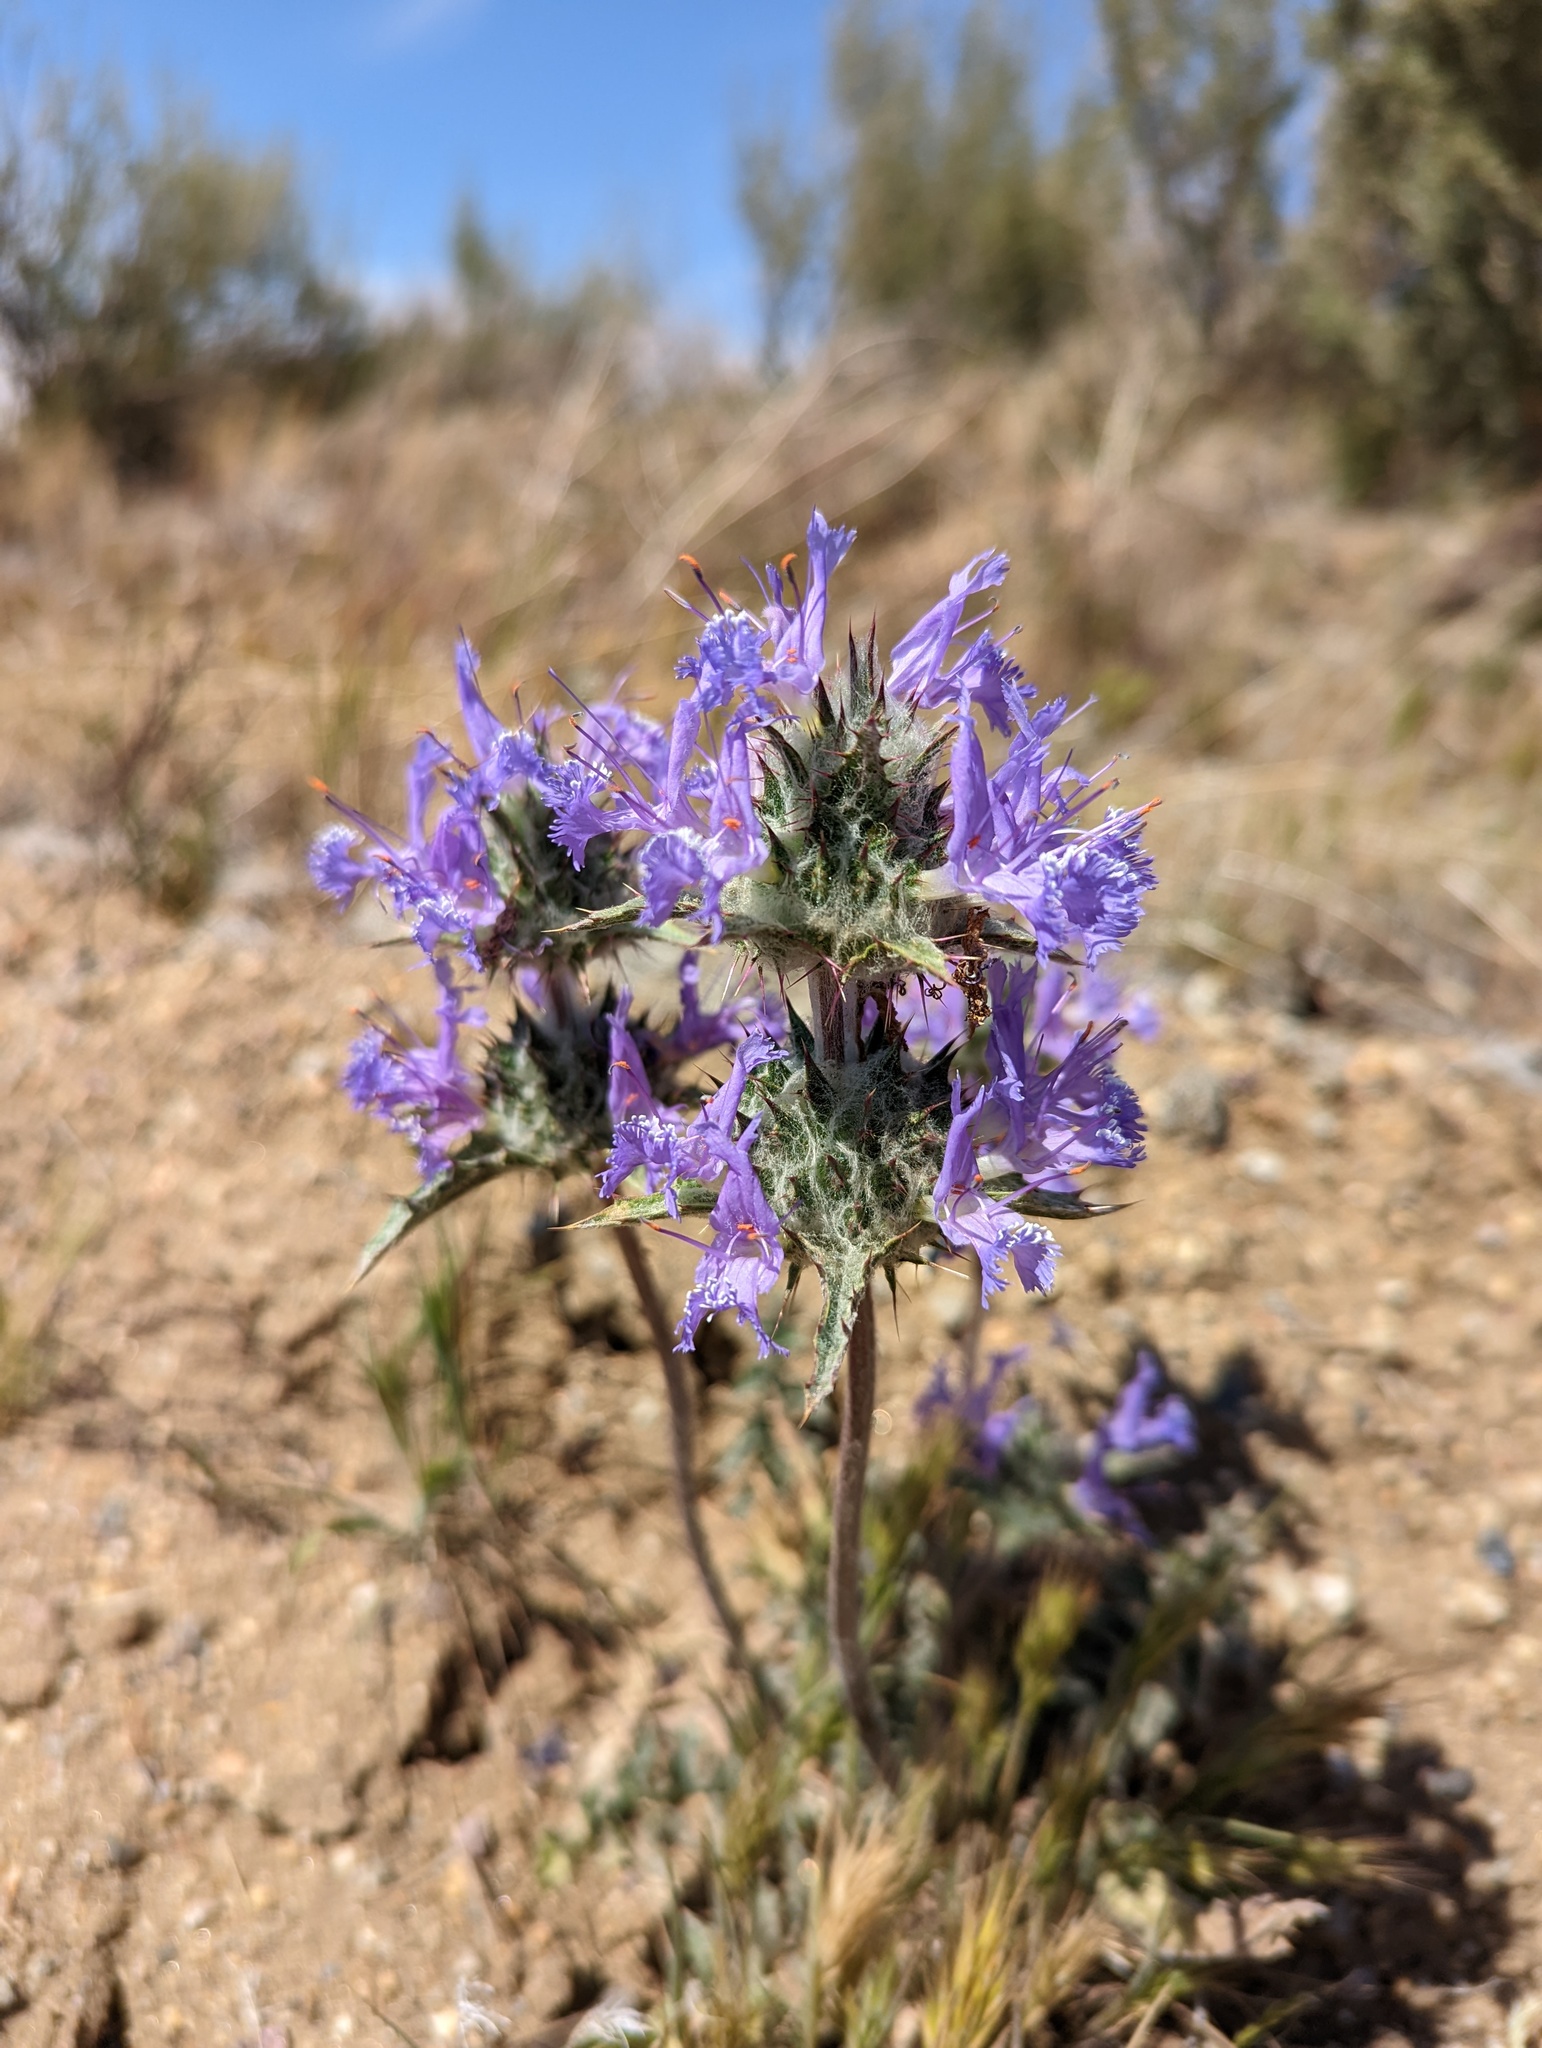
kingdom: Plantae
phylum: Tracheophyta
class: Magnoliopsida
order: Lamiales
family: Lamiaceae
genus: Salvia
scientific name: Salvia carduacea
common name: Thistle sage
